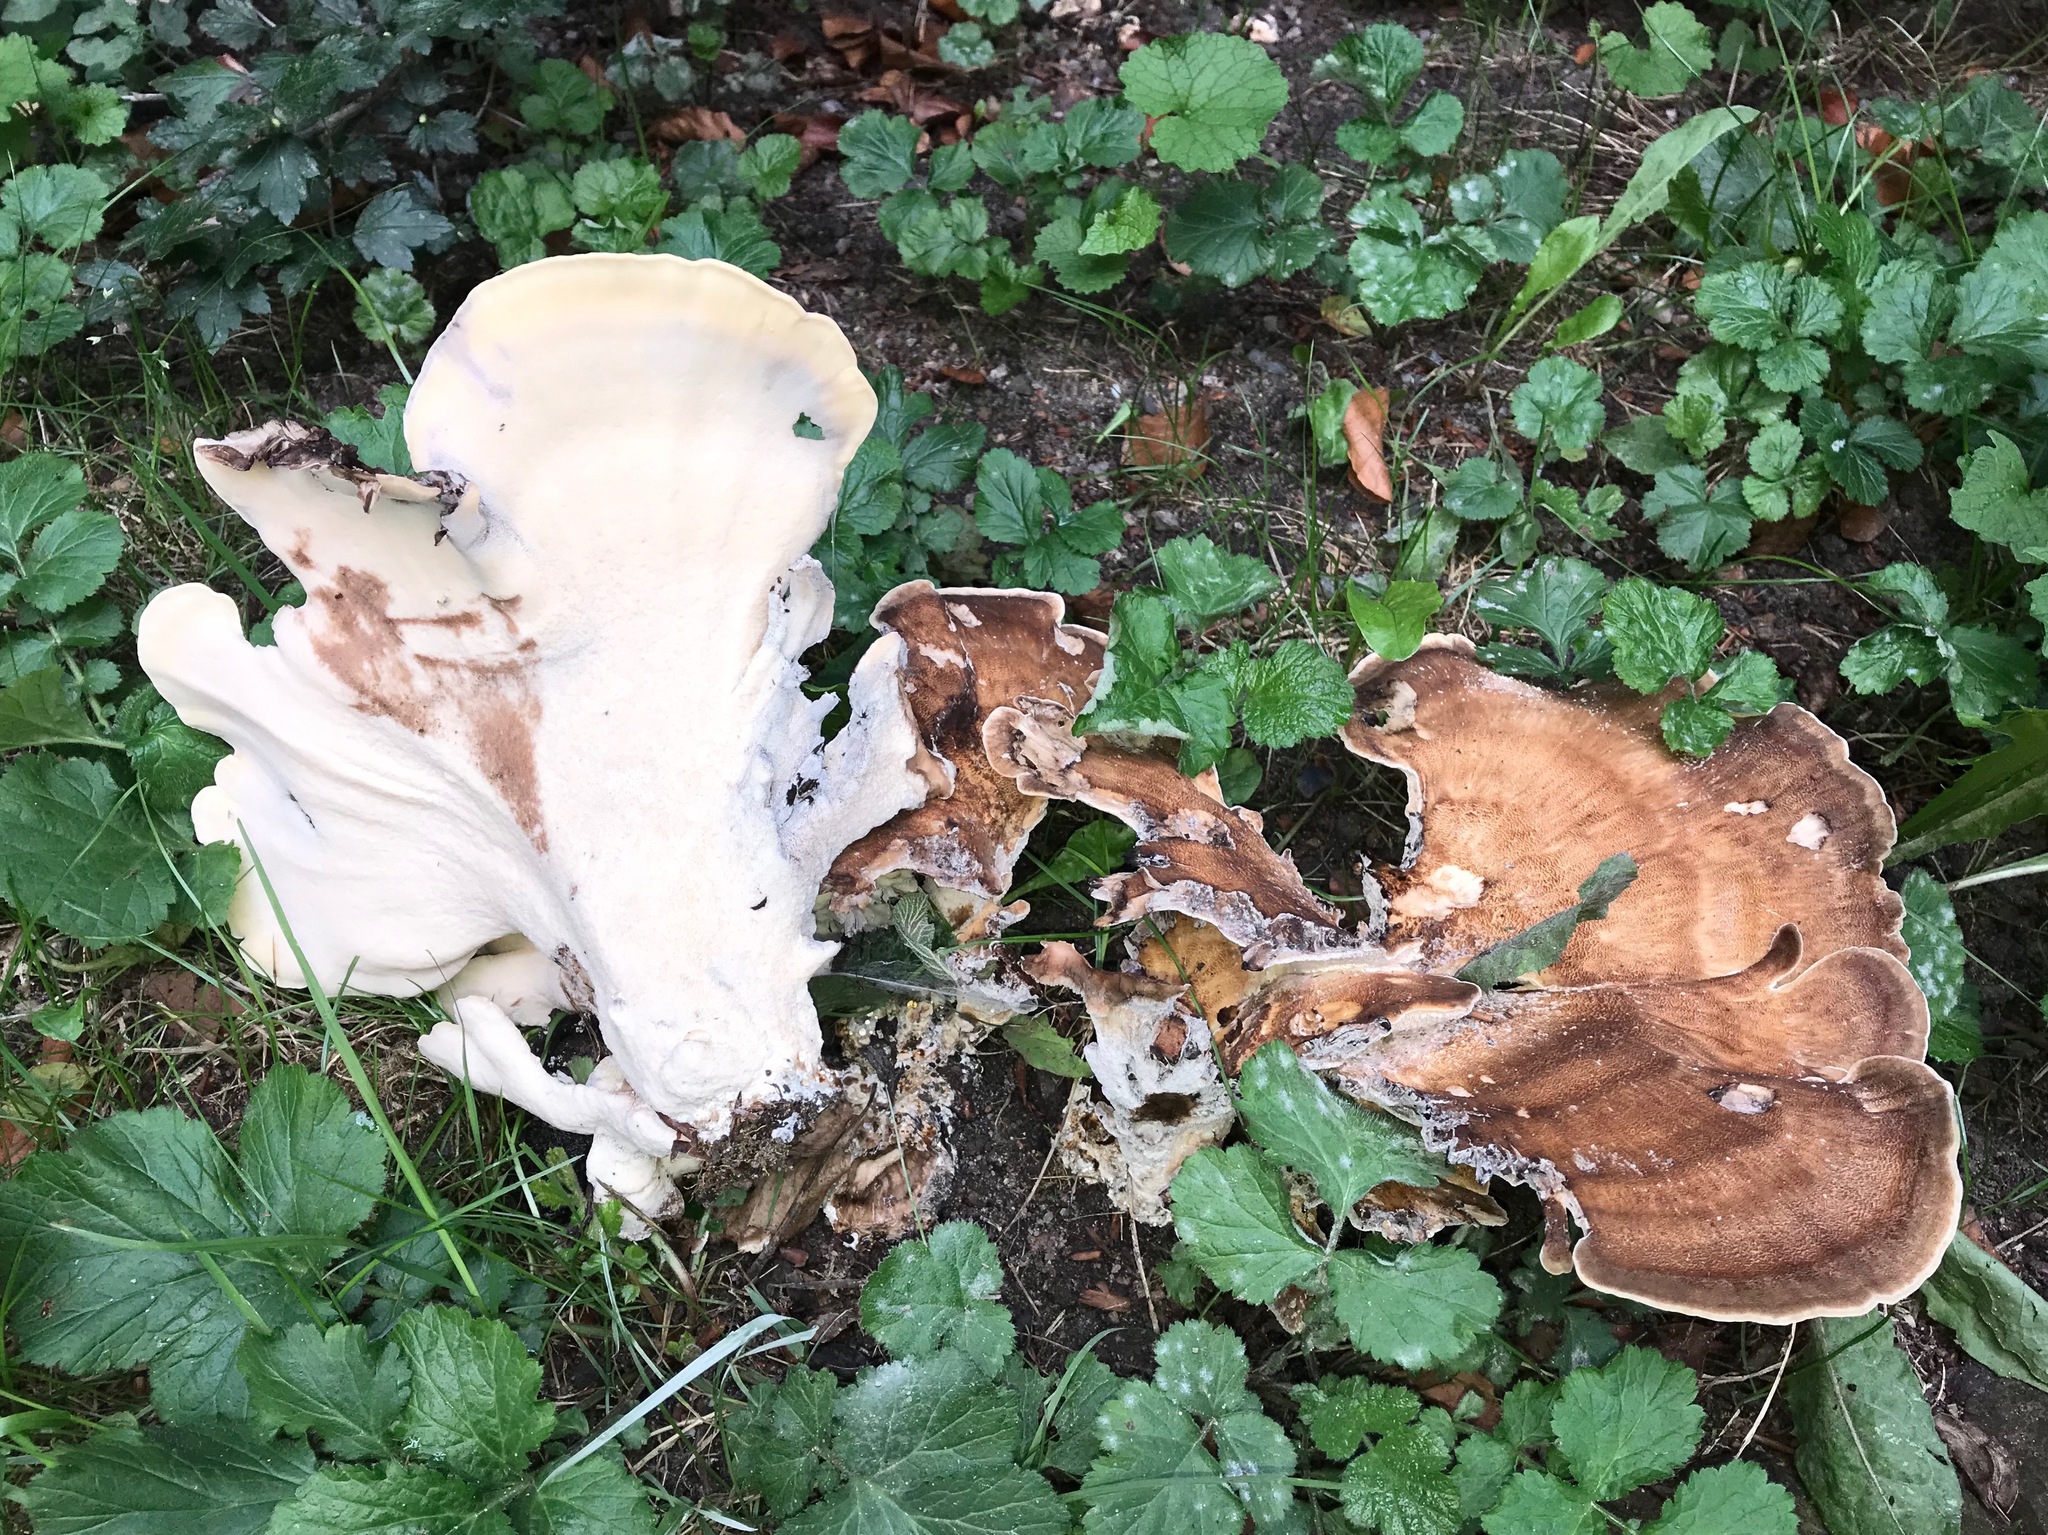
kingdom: Fungi
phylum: Basidiomycota
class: Agaricomycetes
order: Polyporales
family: Meripilaceae
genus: Meripilus
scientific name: Meripilus giganteus
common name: Giant polypore
